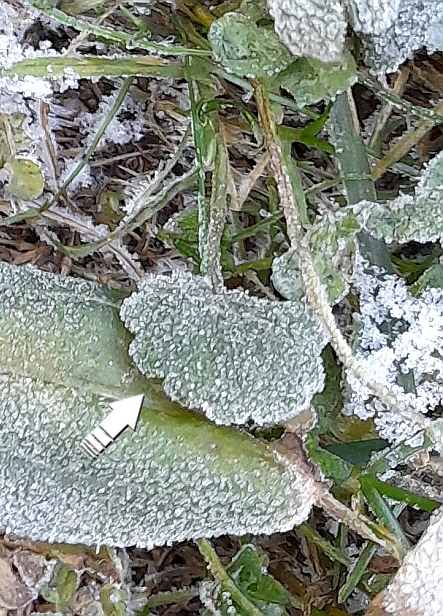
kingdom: Plantae
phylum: Tracheophyta
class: Magnoliopsida
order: Lamiales
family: Lamiaceae
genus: Glechoma
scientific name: Glechoma hederacea
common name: Ground ivy
